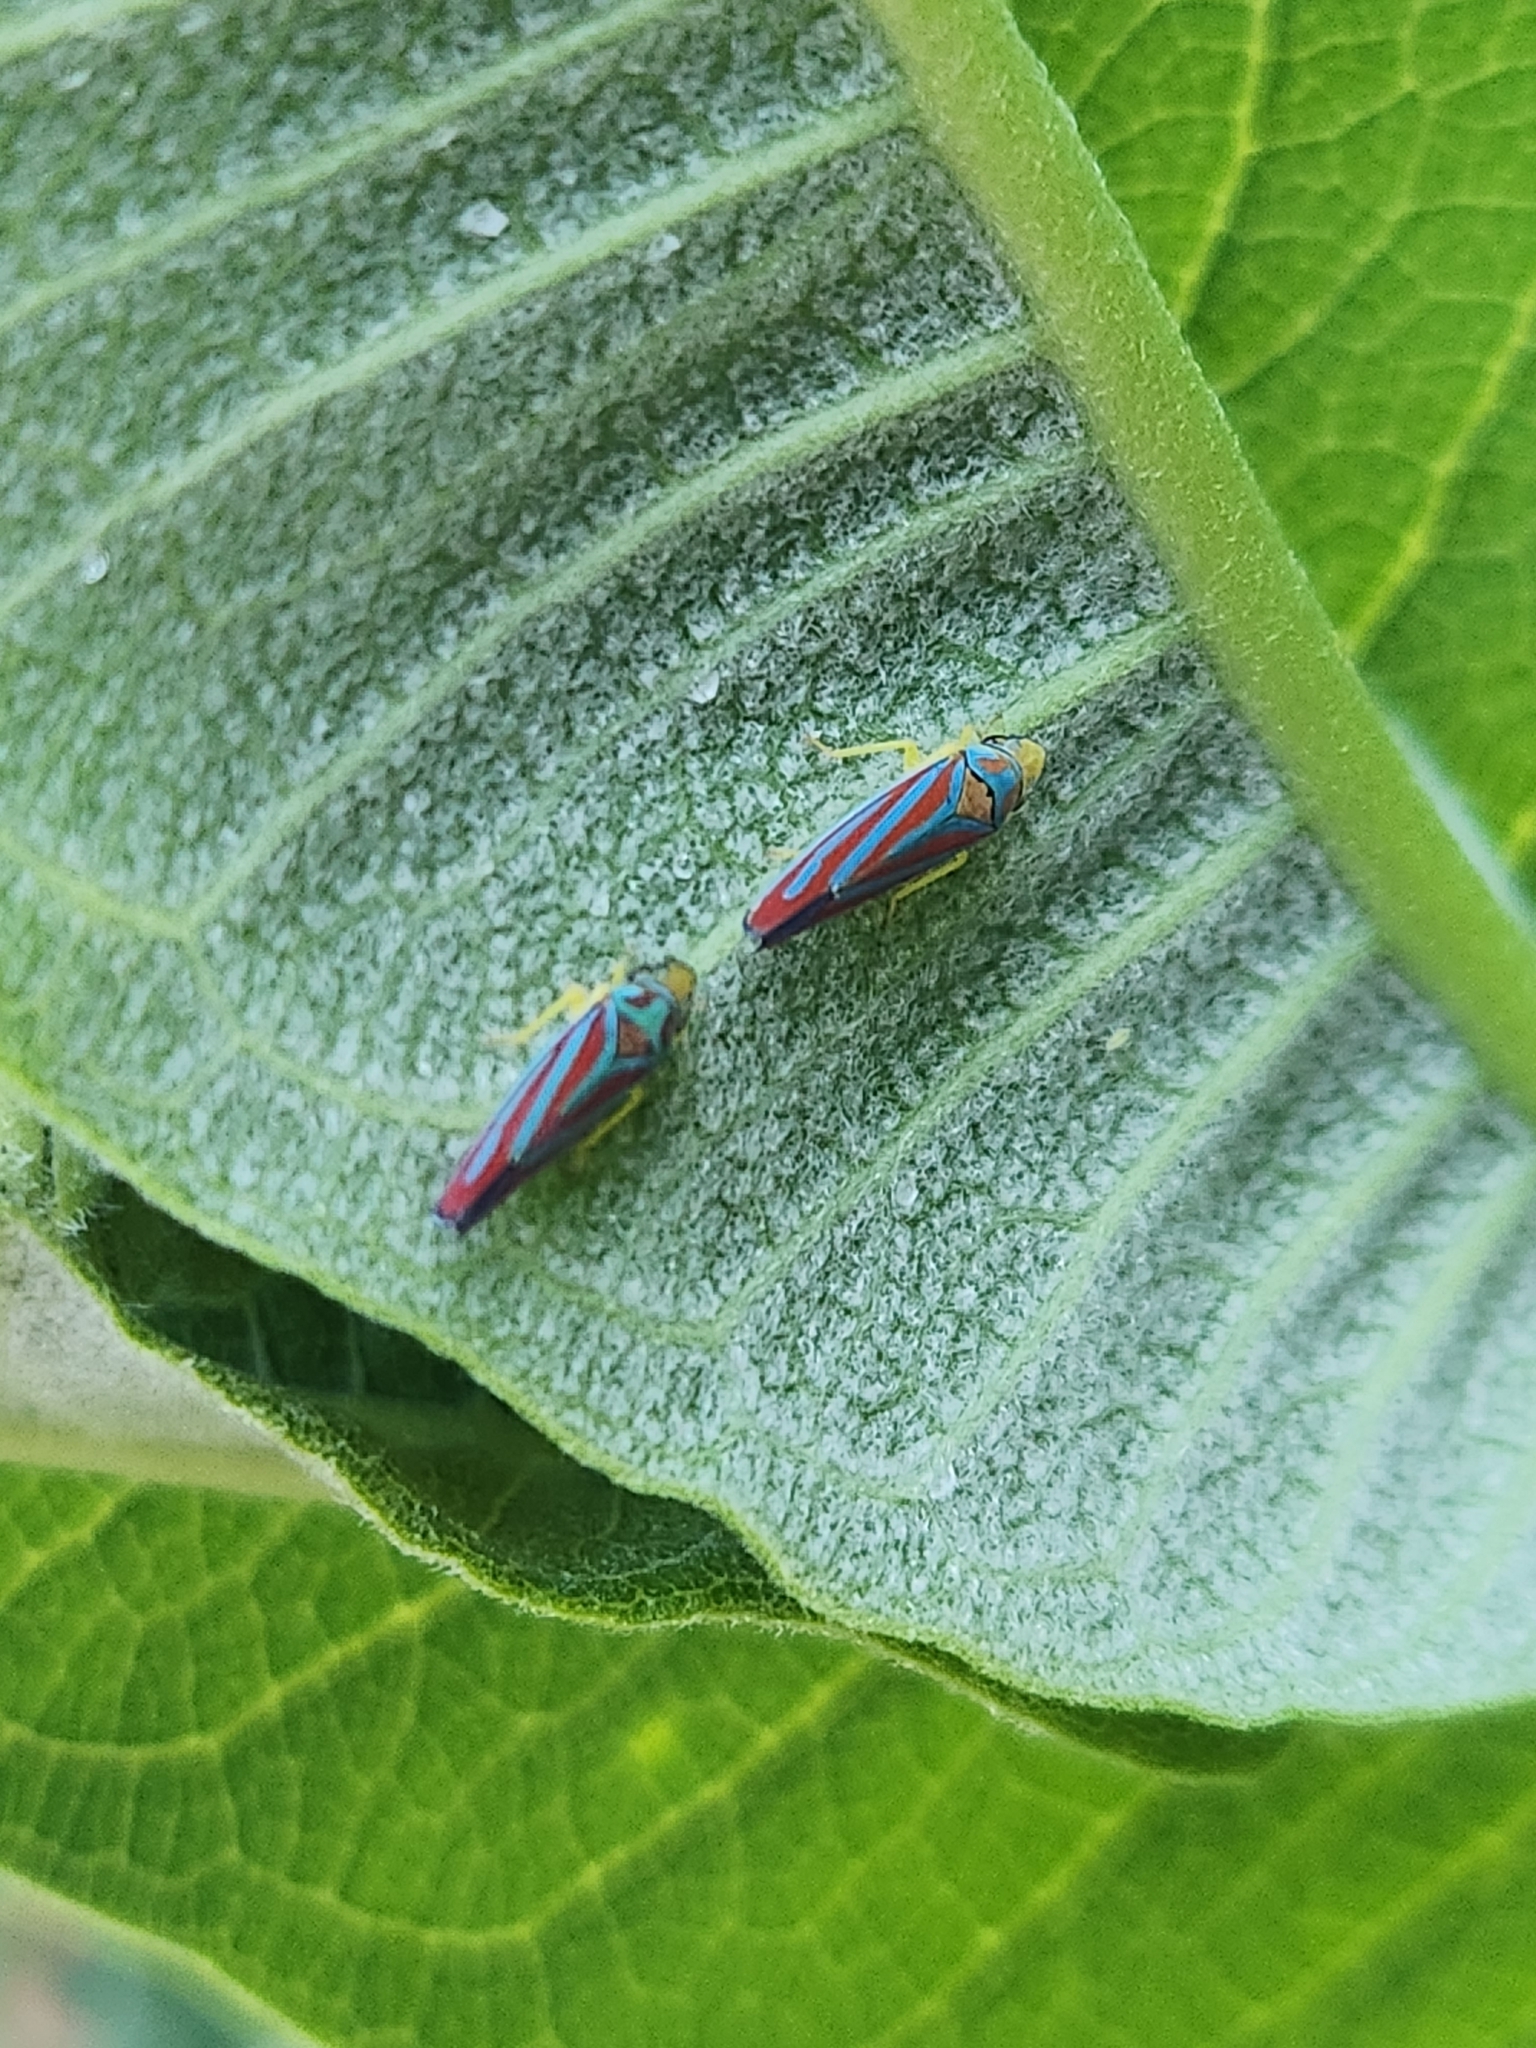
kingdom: Animalia
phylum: Arthropoda
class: Insecta
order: Hemiptera
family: Cicadellidae
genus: Graphocephala
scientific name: Graphocephala coccinea
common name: Candy-striped leafhopper
